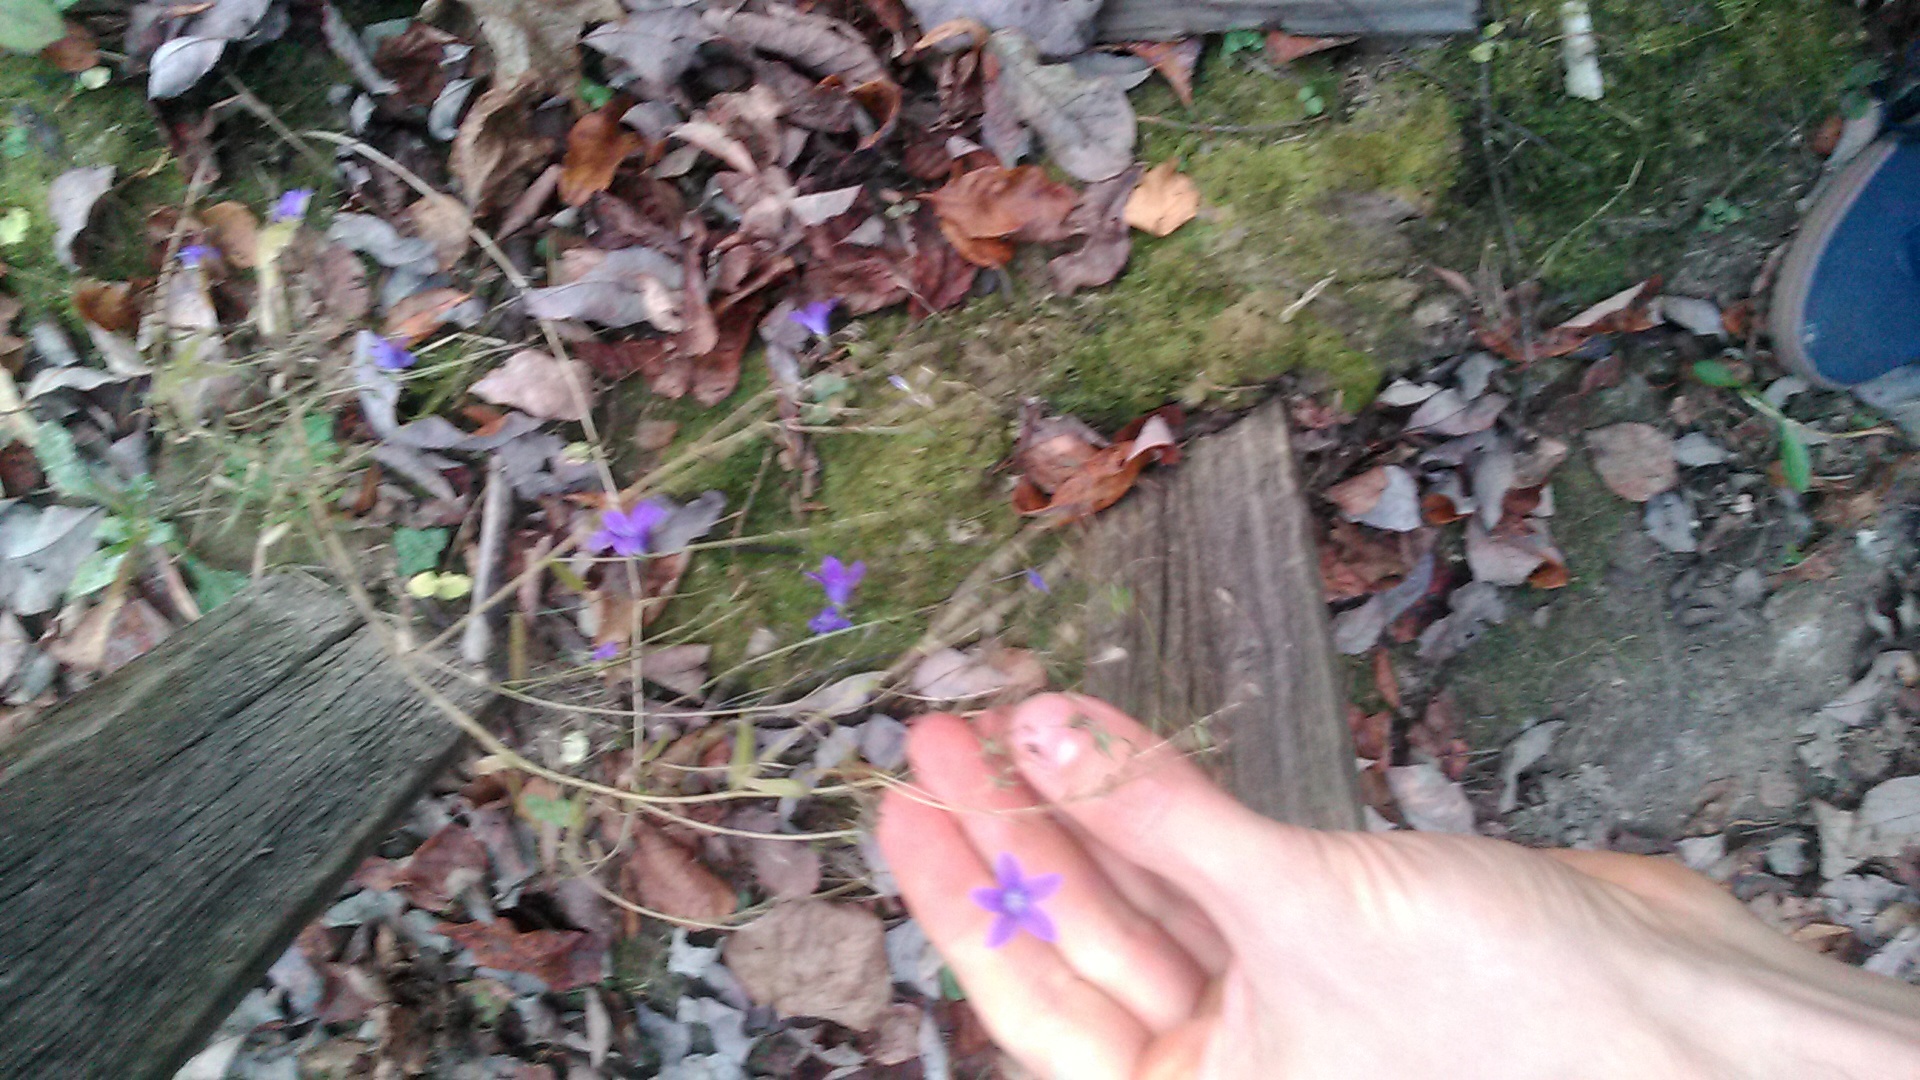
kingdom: Plantae
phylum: Tracheophyta
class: Magnoliopsida
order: Asterales
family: Campanulaceae
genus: Campanula
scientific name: Campanula patula
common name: Spreading bellflower
